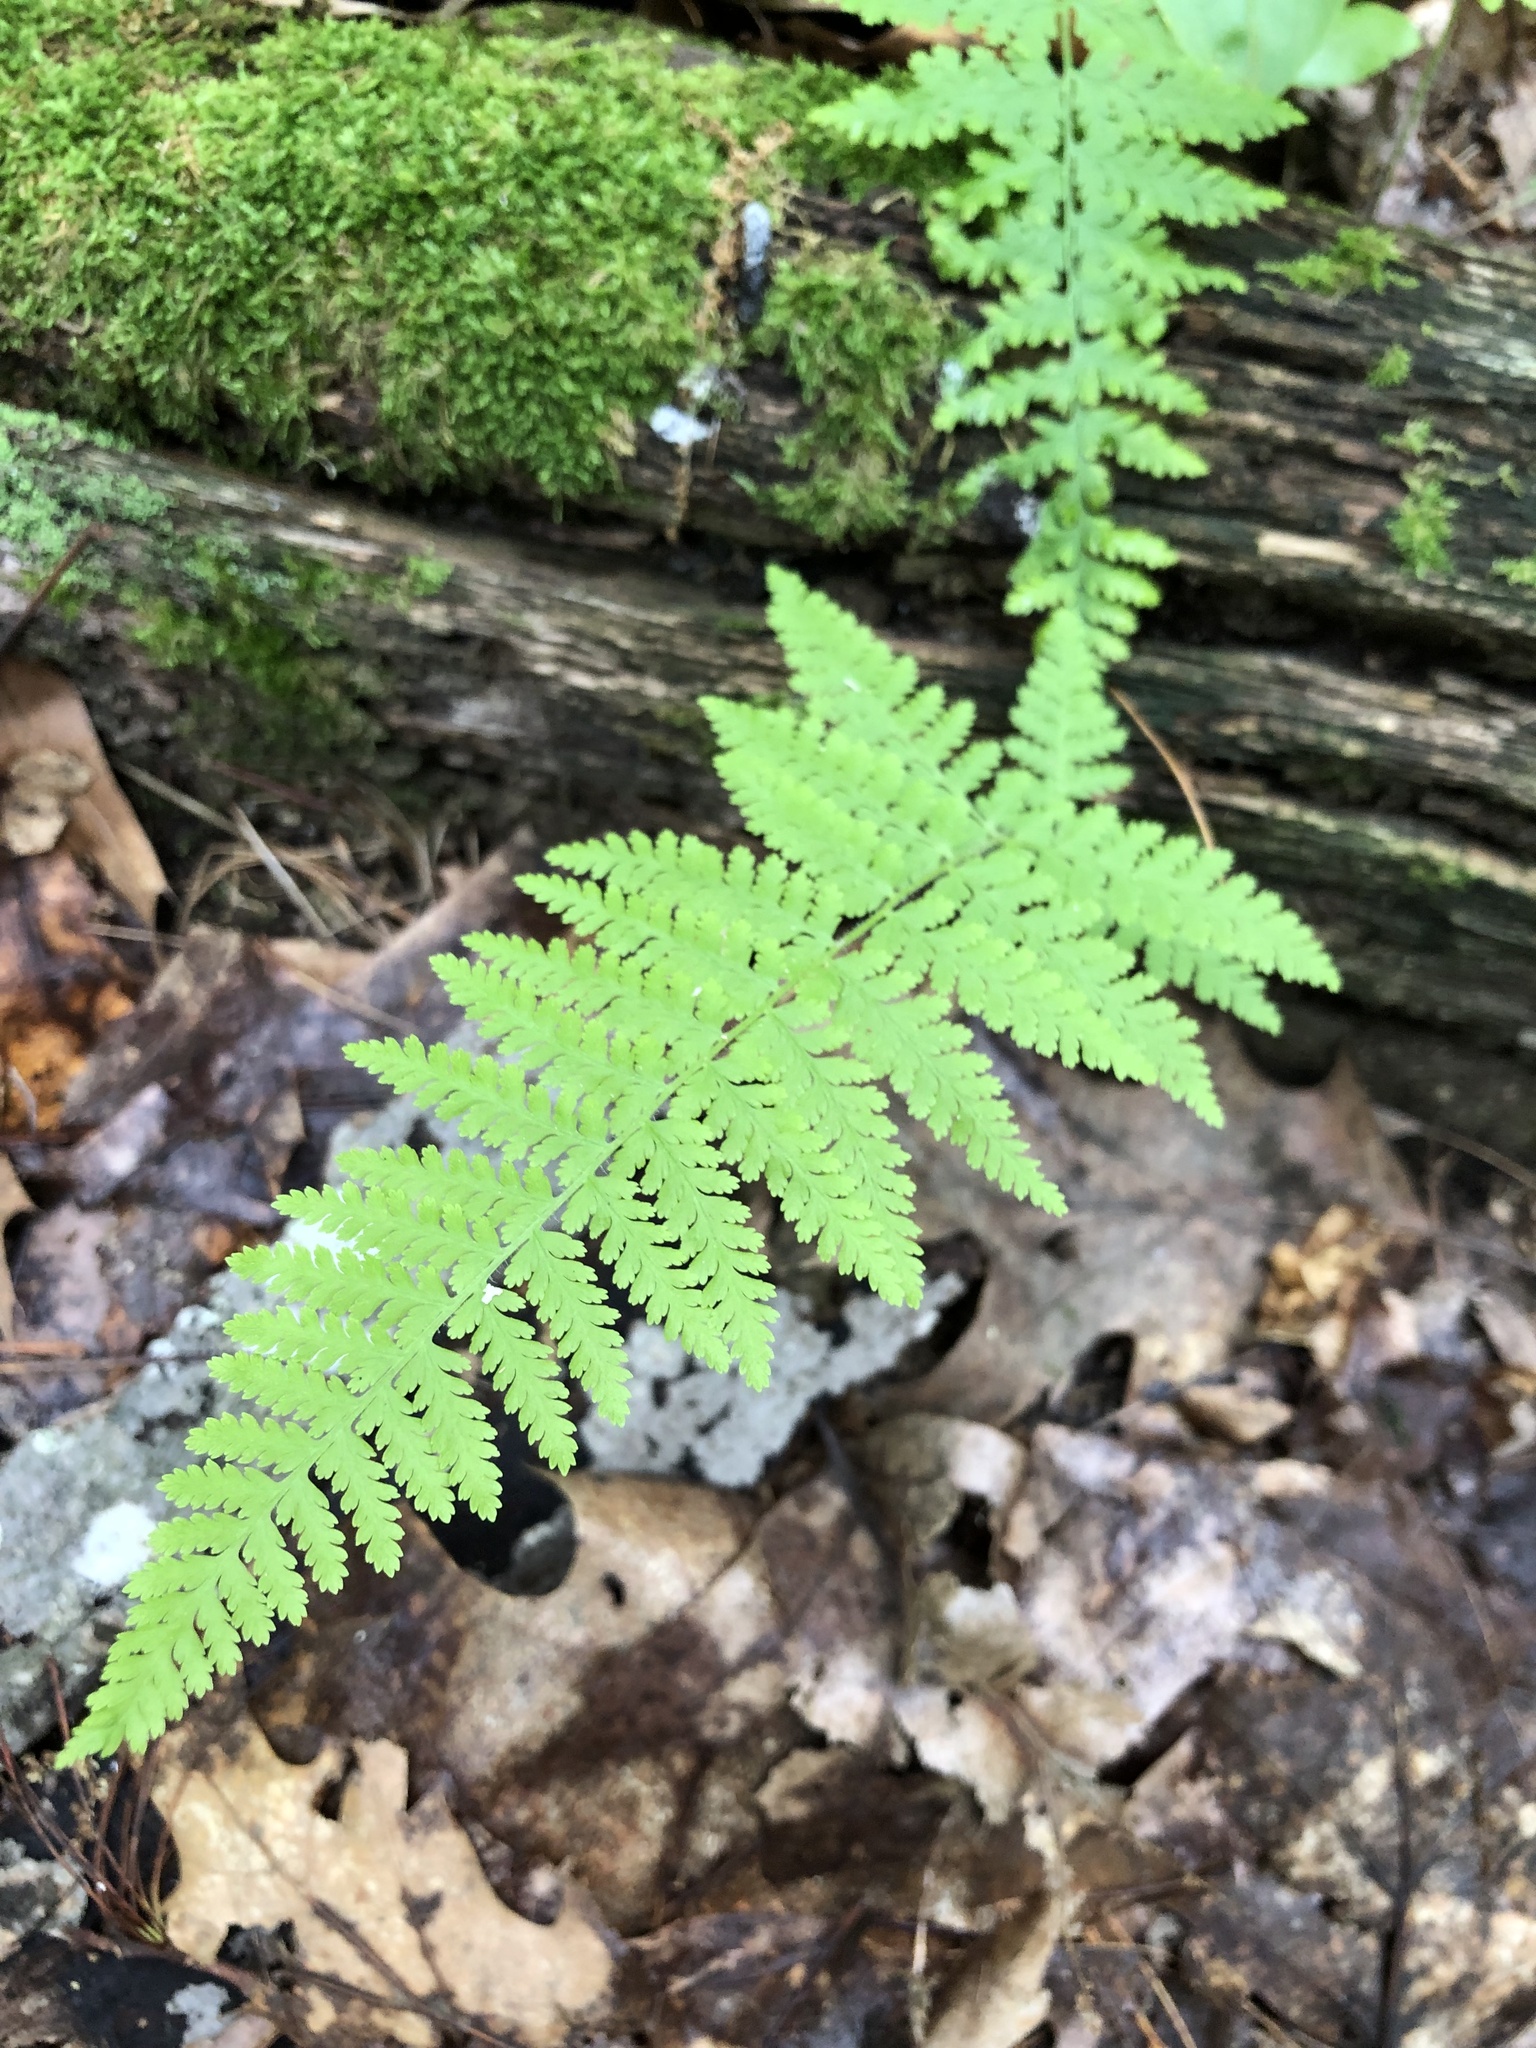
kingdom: Plantae
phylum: Tracheophyta
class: Polypodiopsida
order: Polypodiales
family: Dennstaedtiaceae
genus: Sitobolium
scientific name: Sitobolium punctilobum
